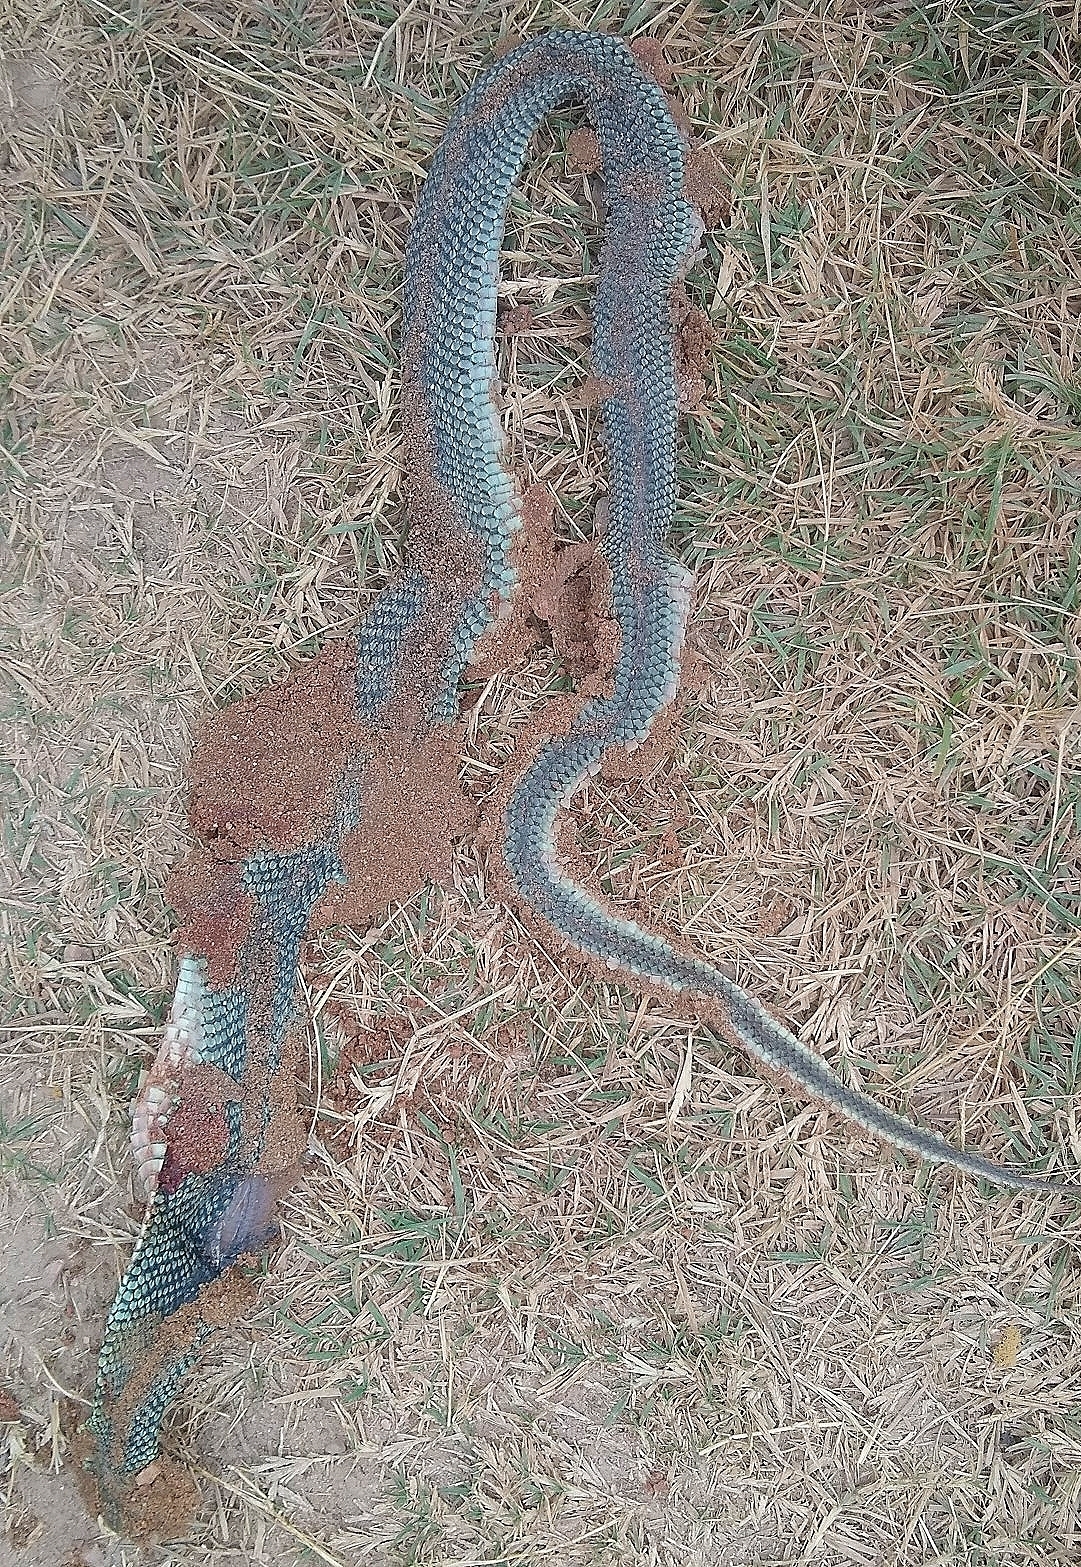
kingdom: Animalia
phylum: Chordata
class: Squamata
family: Colubridae
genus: Philodryas
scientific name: Philodryas patagoniensis
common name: Patagonia green racer
